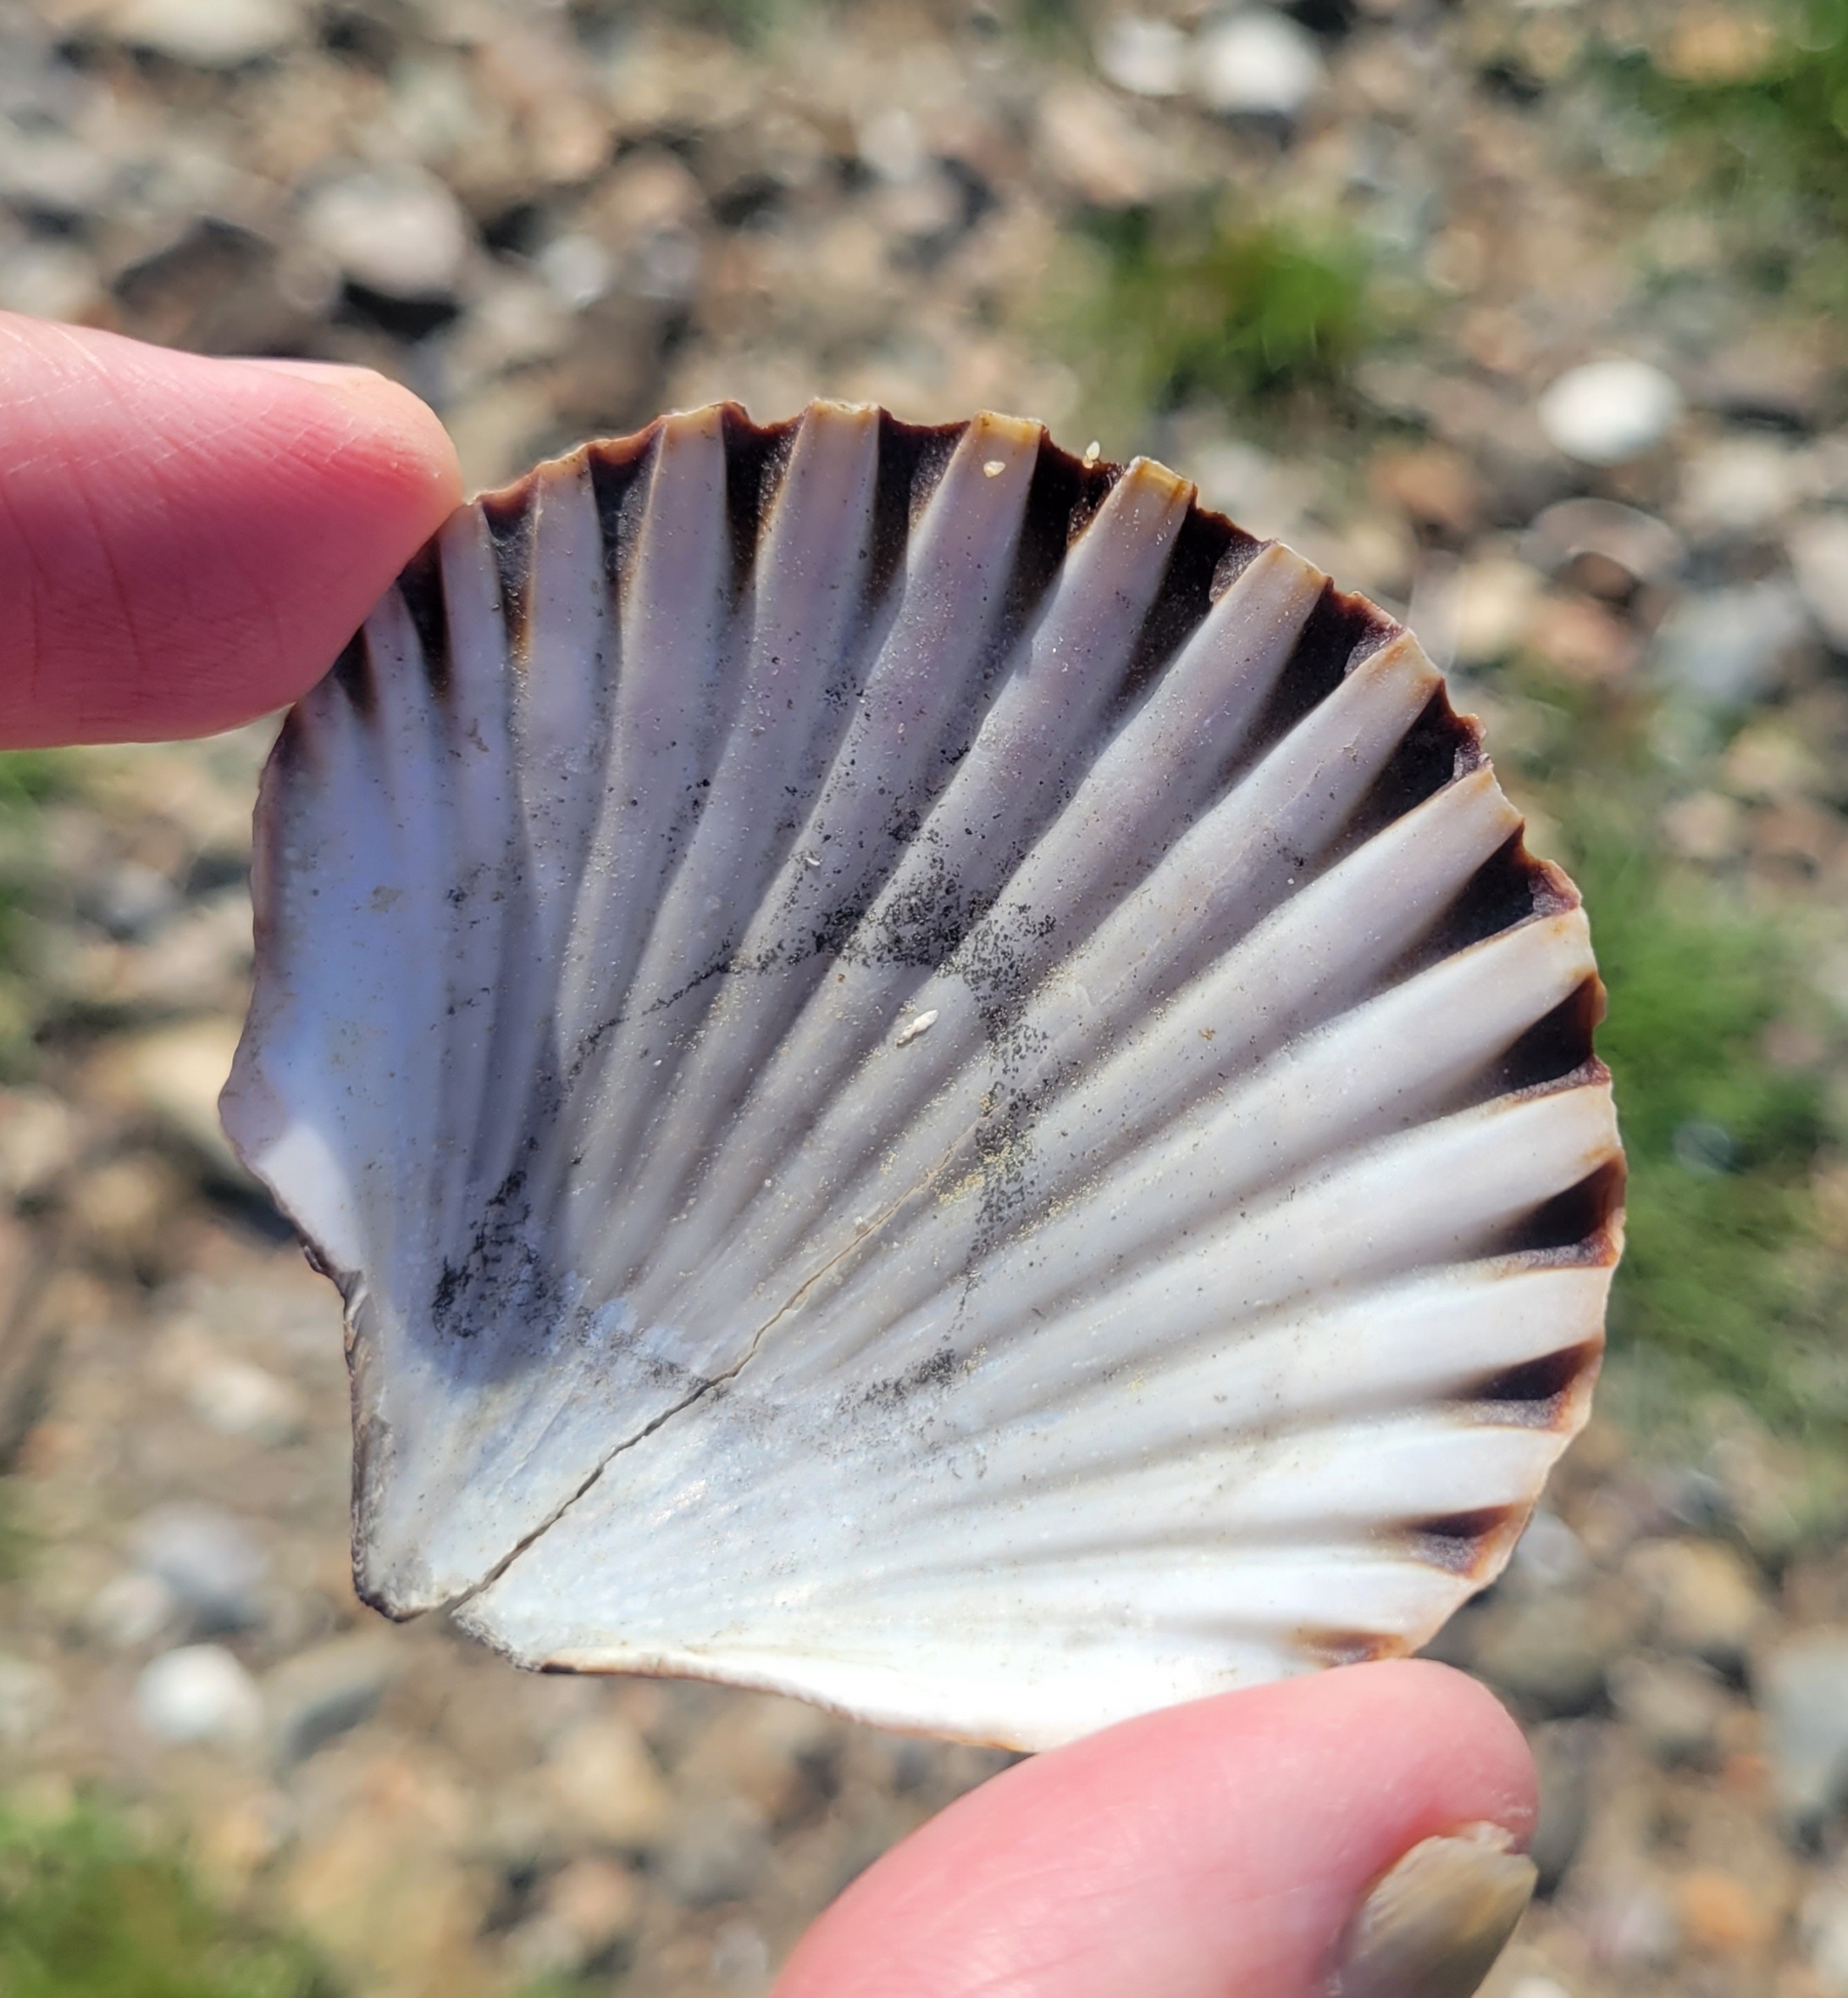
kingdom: Animalia
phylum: Mollusca
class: Bivalvia
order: Pectinida
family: Pectinidae
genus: Argopecten
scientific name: Argopecten irradians
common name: Atlantic bay scallop
